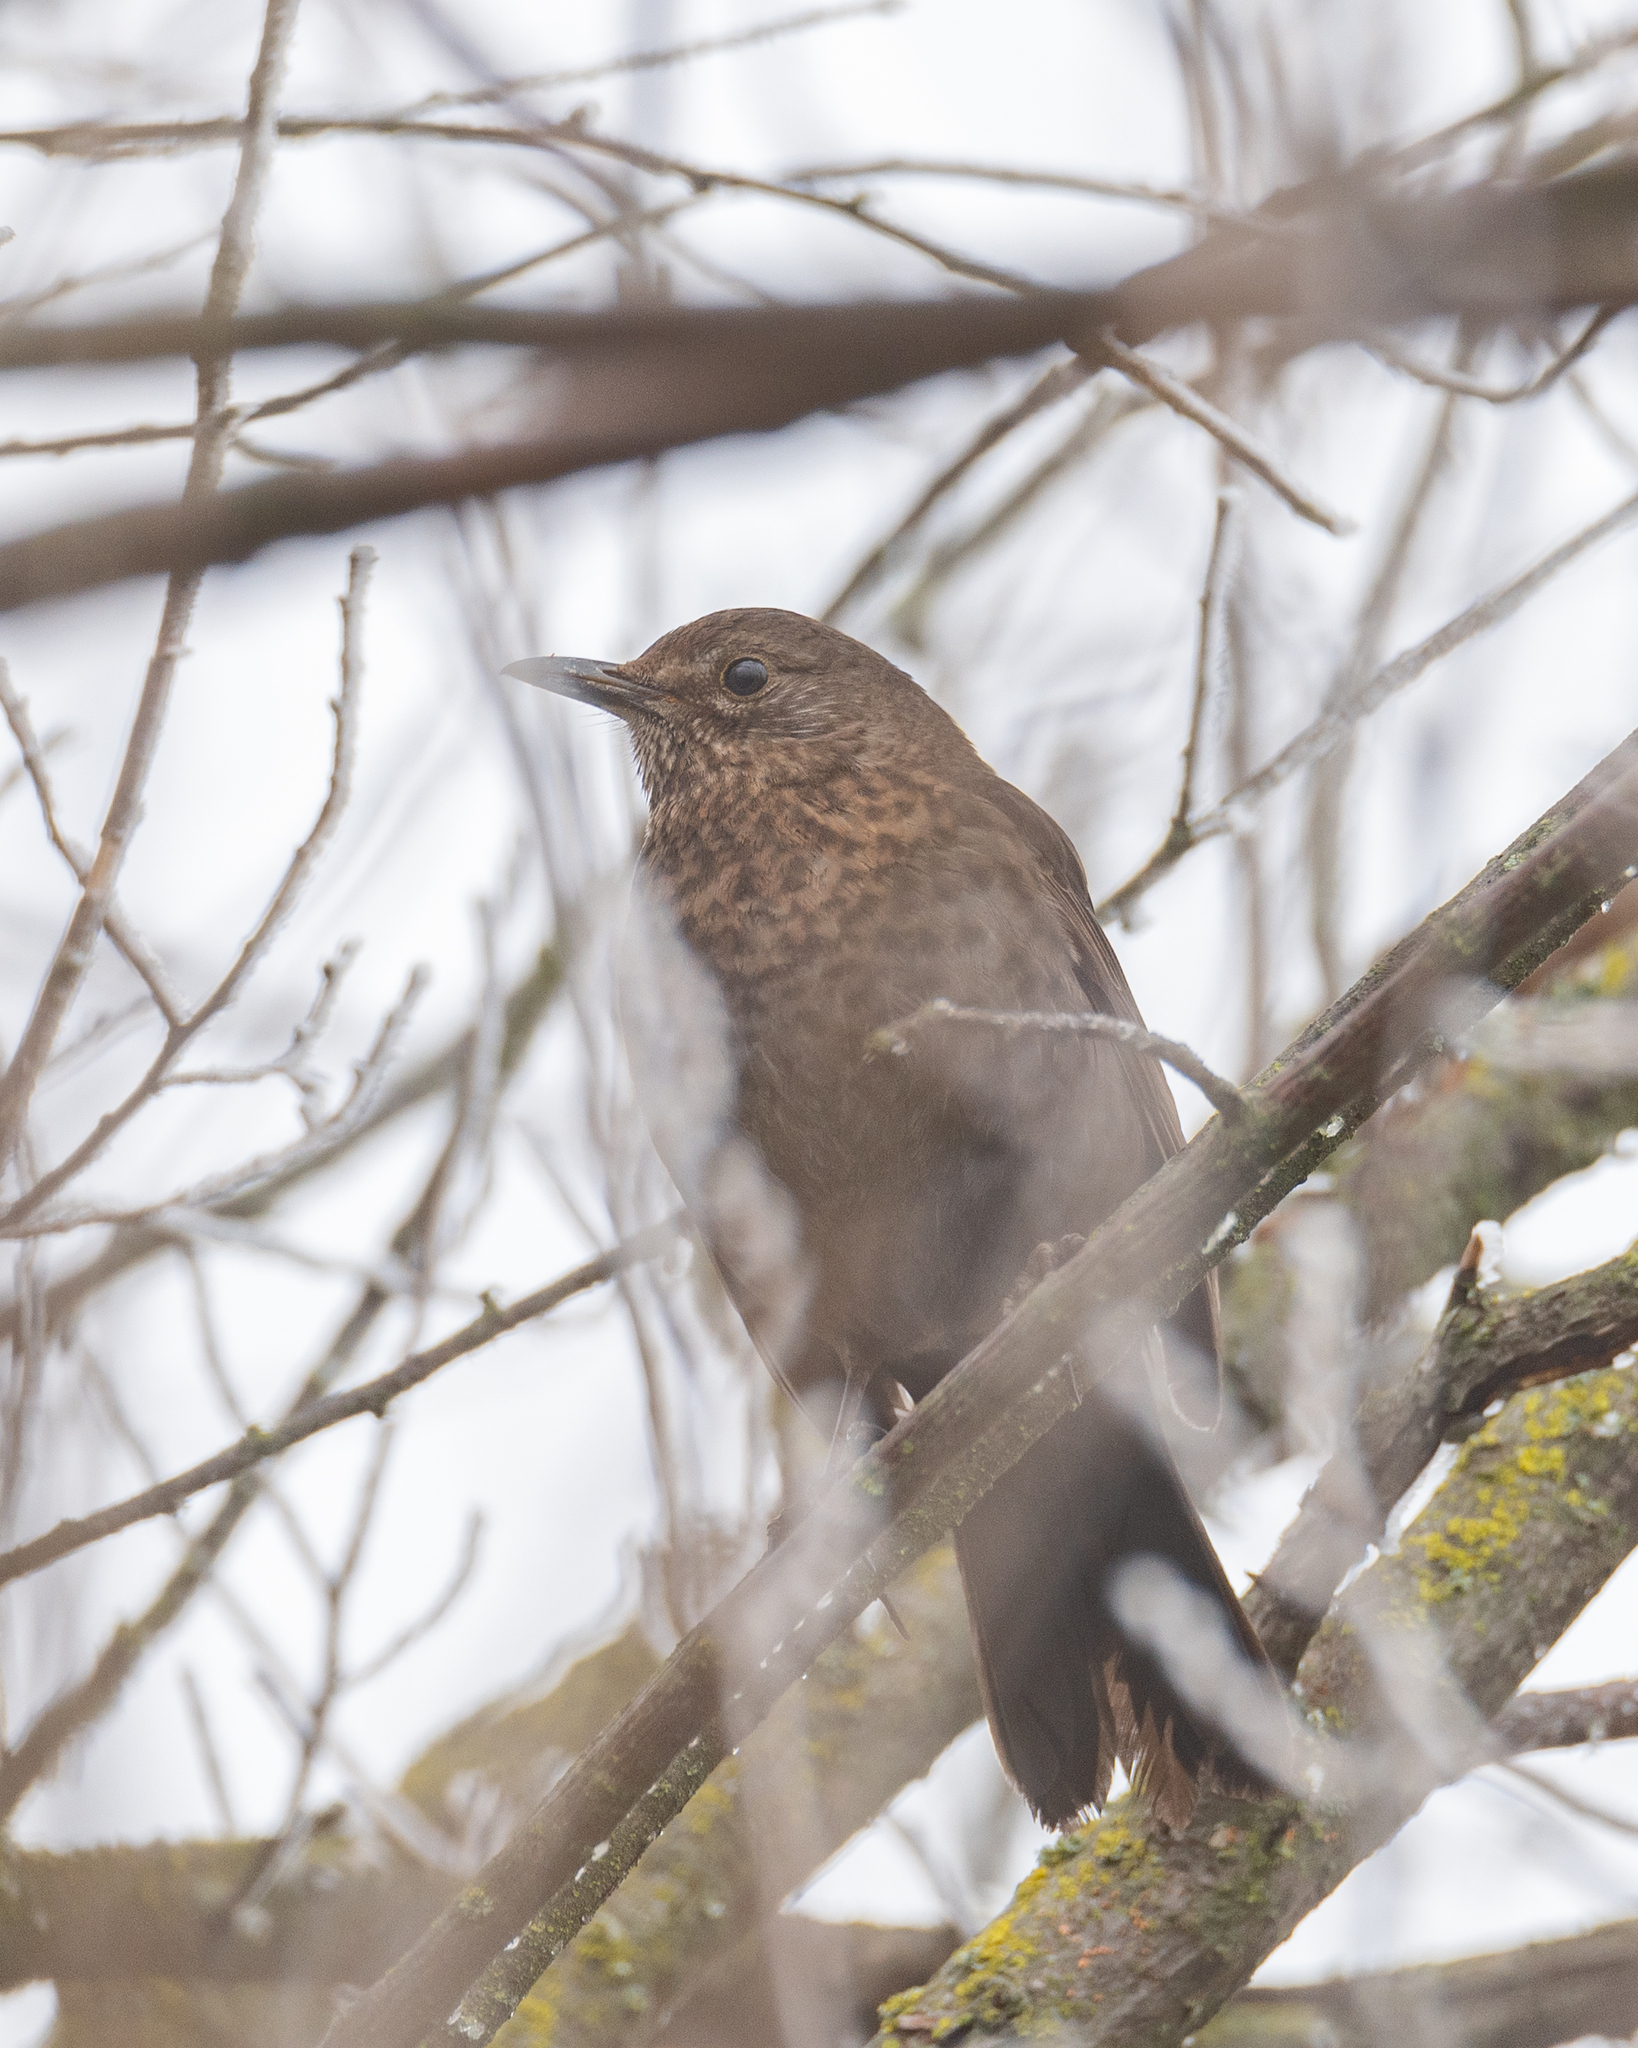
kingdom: Animalia
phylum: Chordata
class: Aves
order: Passeriformes
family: Turdidae
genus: Turdus
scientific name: Turdus merula
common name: Common blackbird
